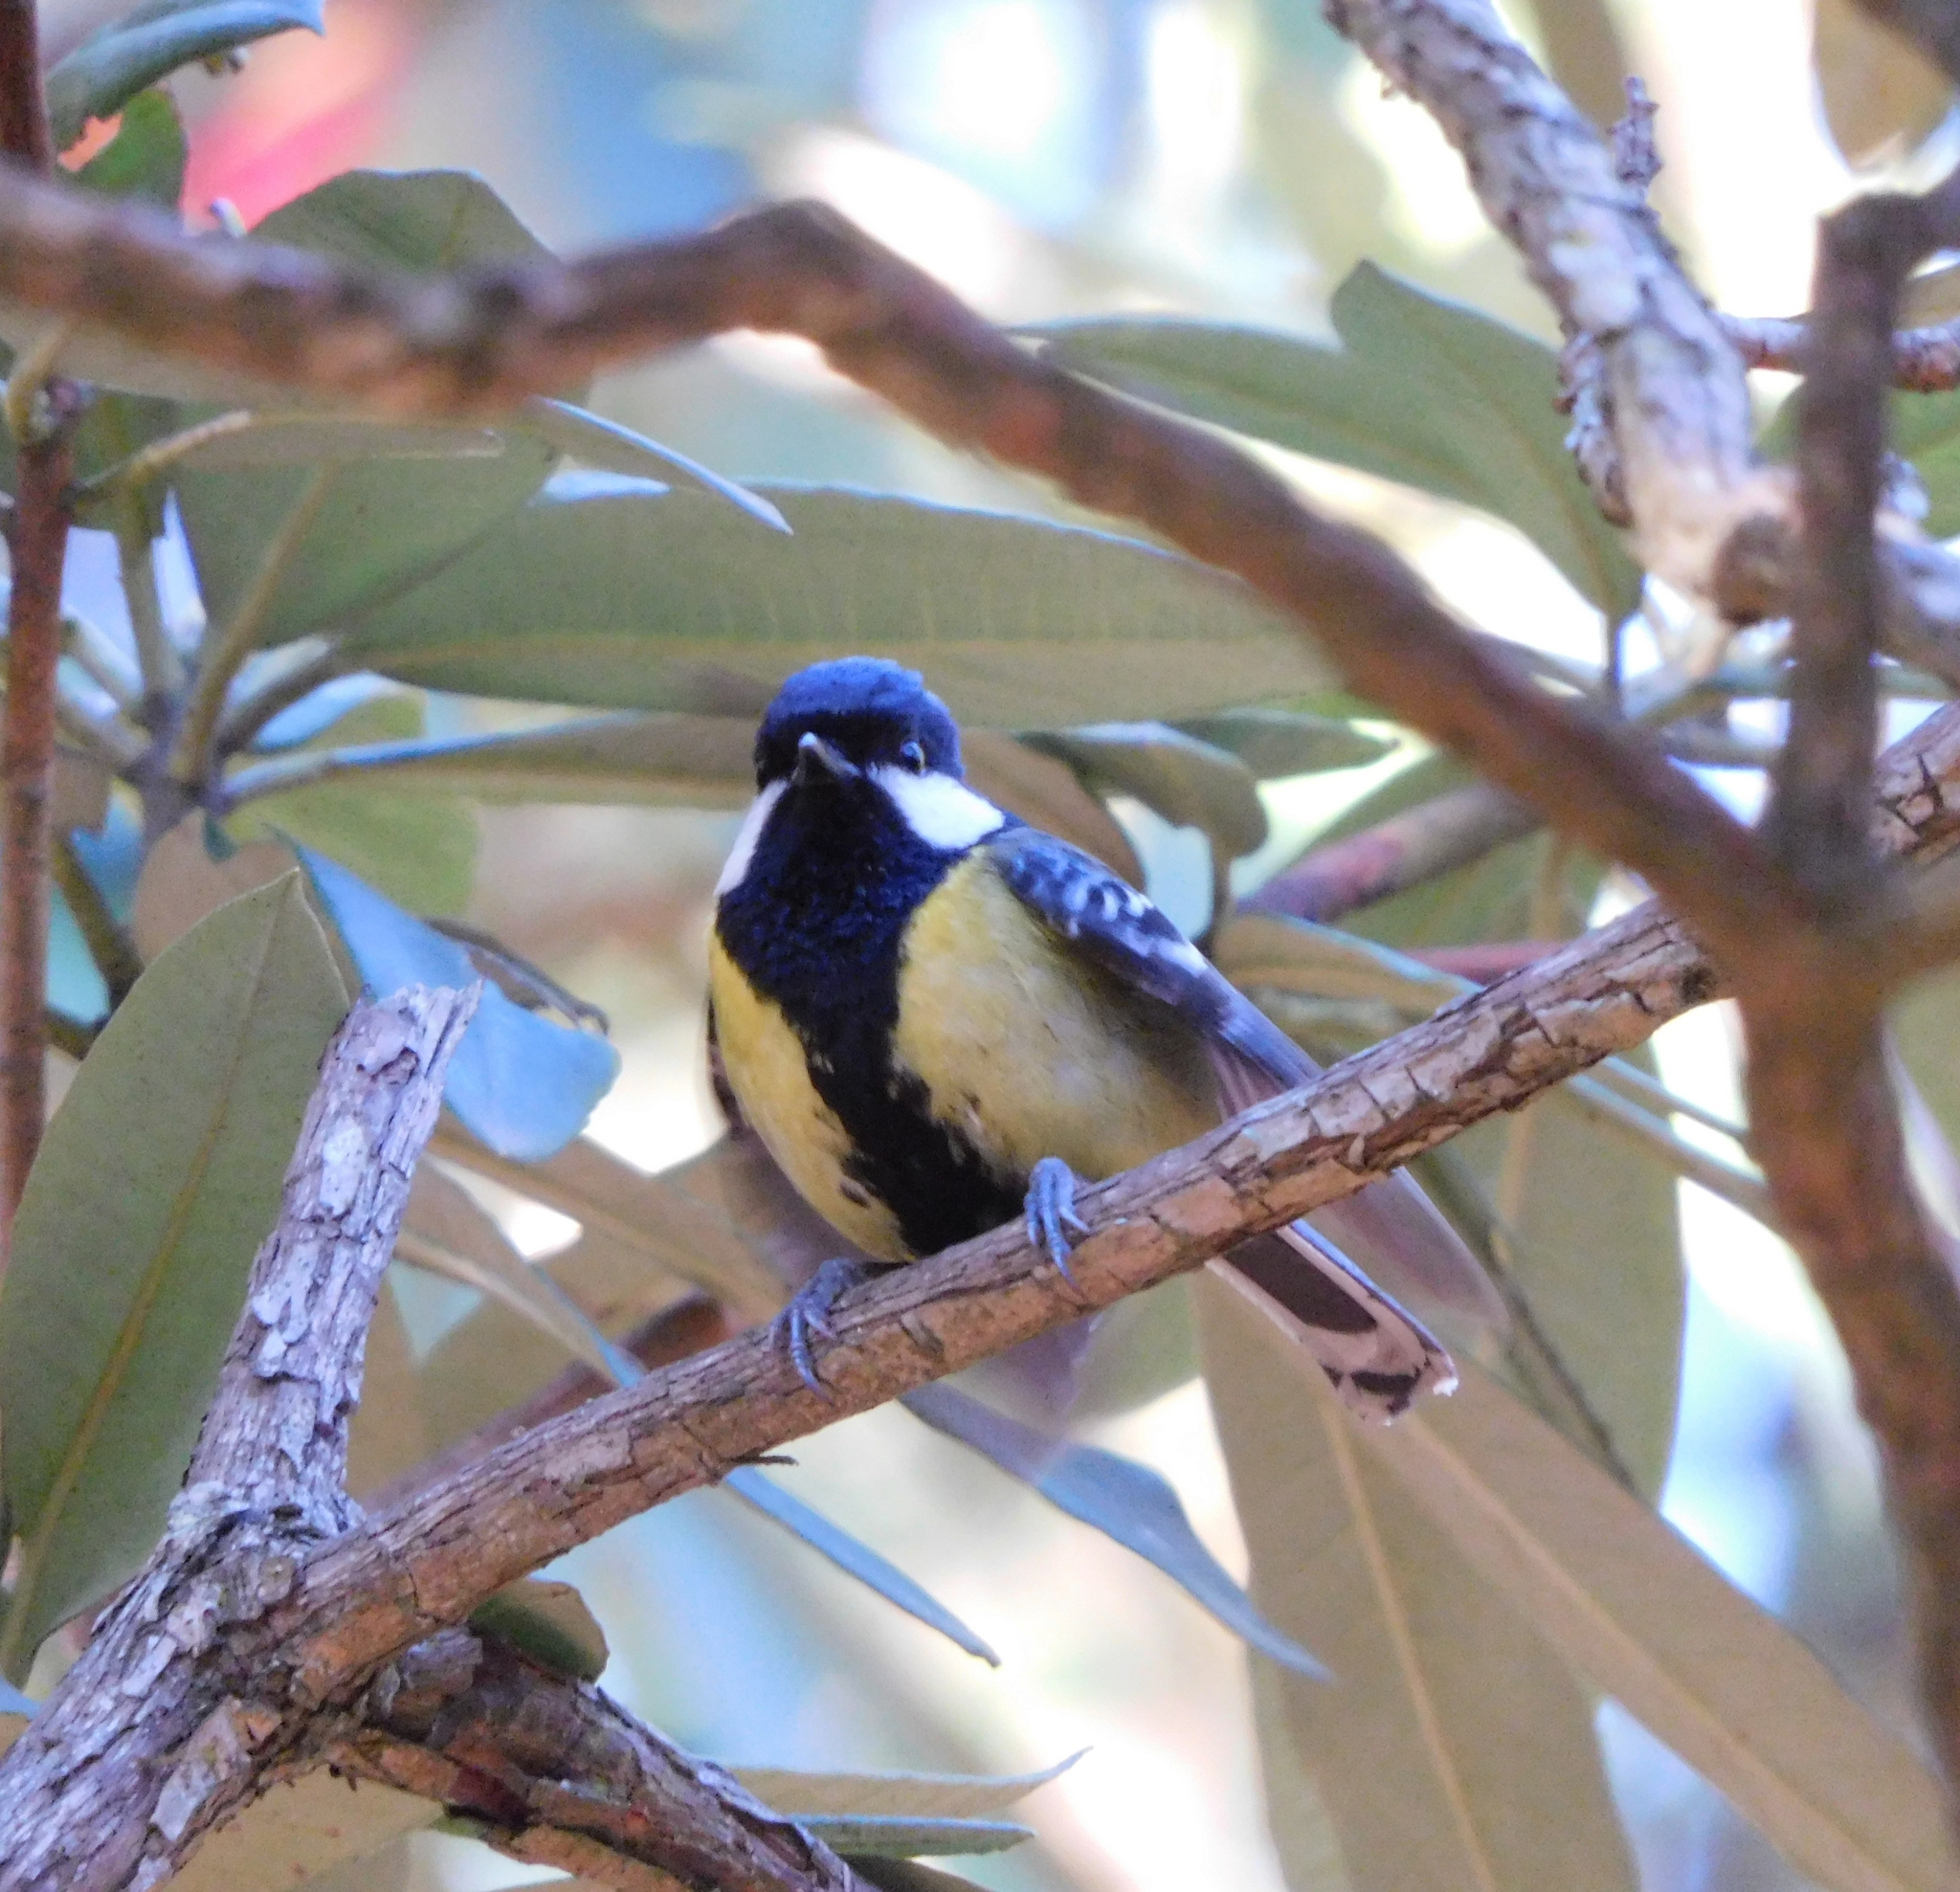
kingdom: Animalia
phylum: Chordata
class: Aves
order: Passeriformes
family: Paridae
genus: Parus
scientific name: Parus monticolus
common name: Green-backed tit
